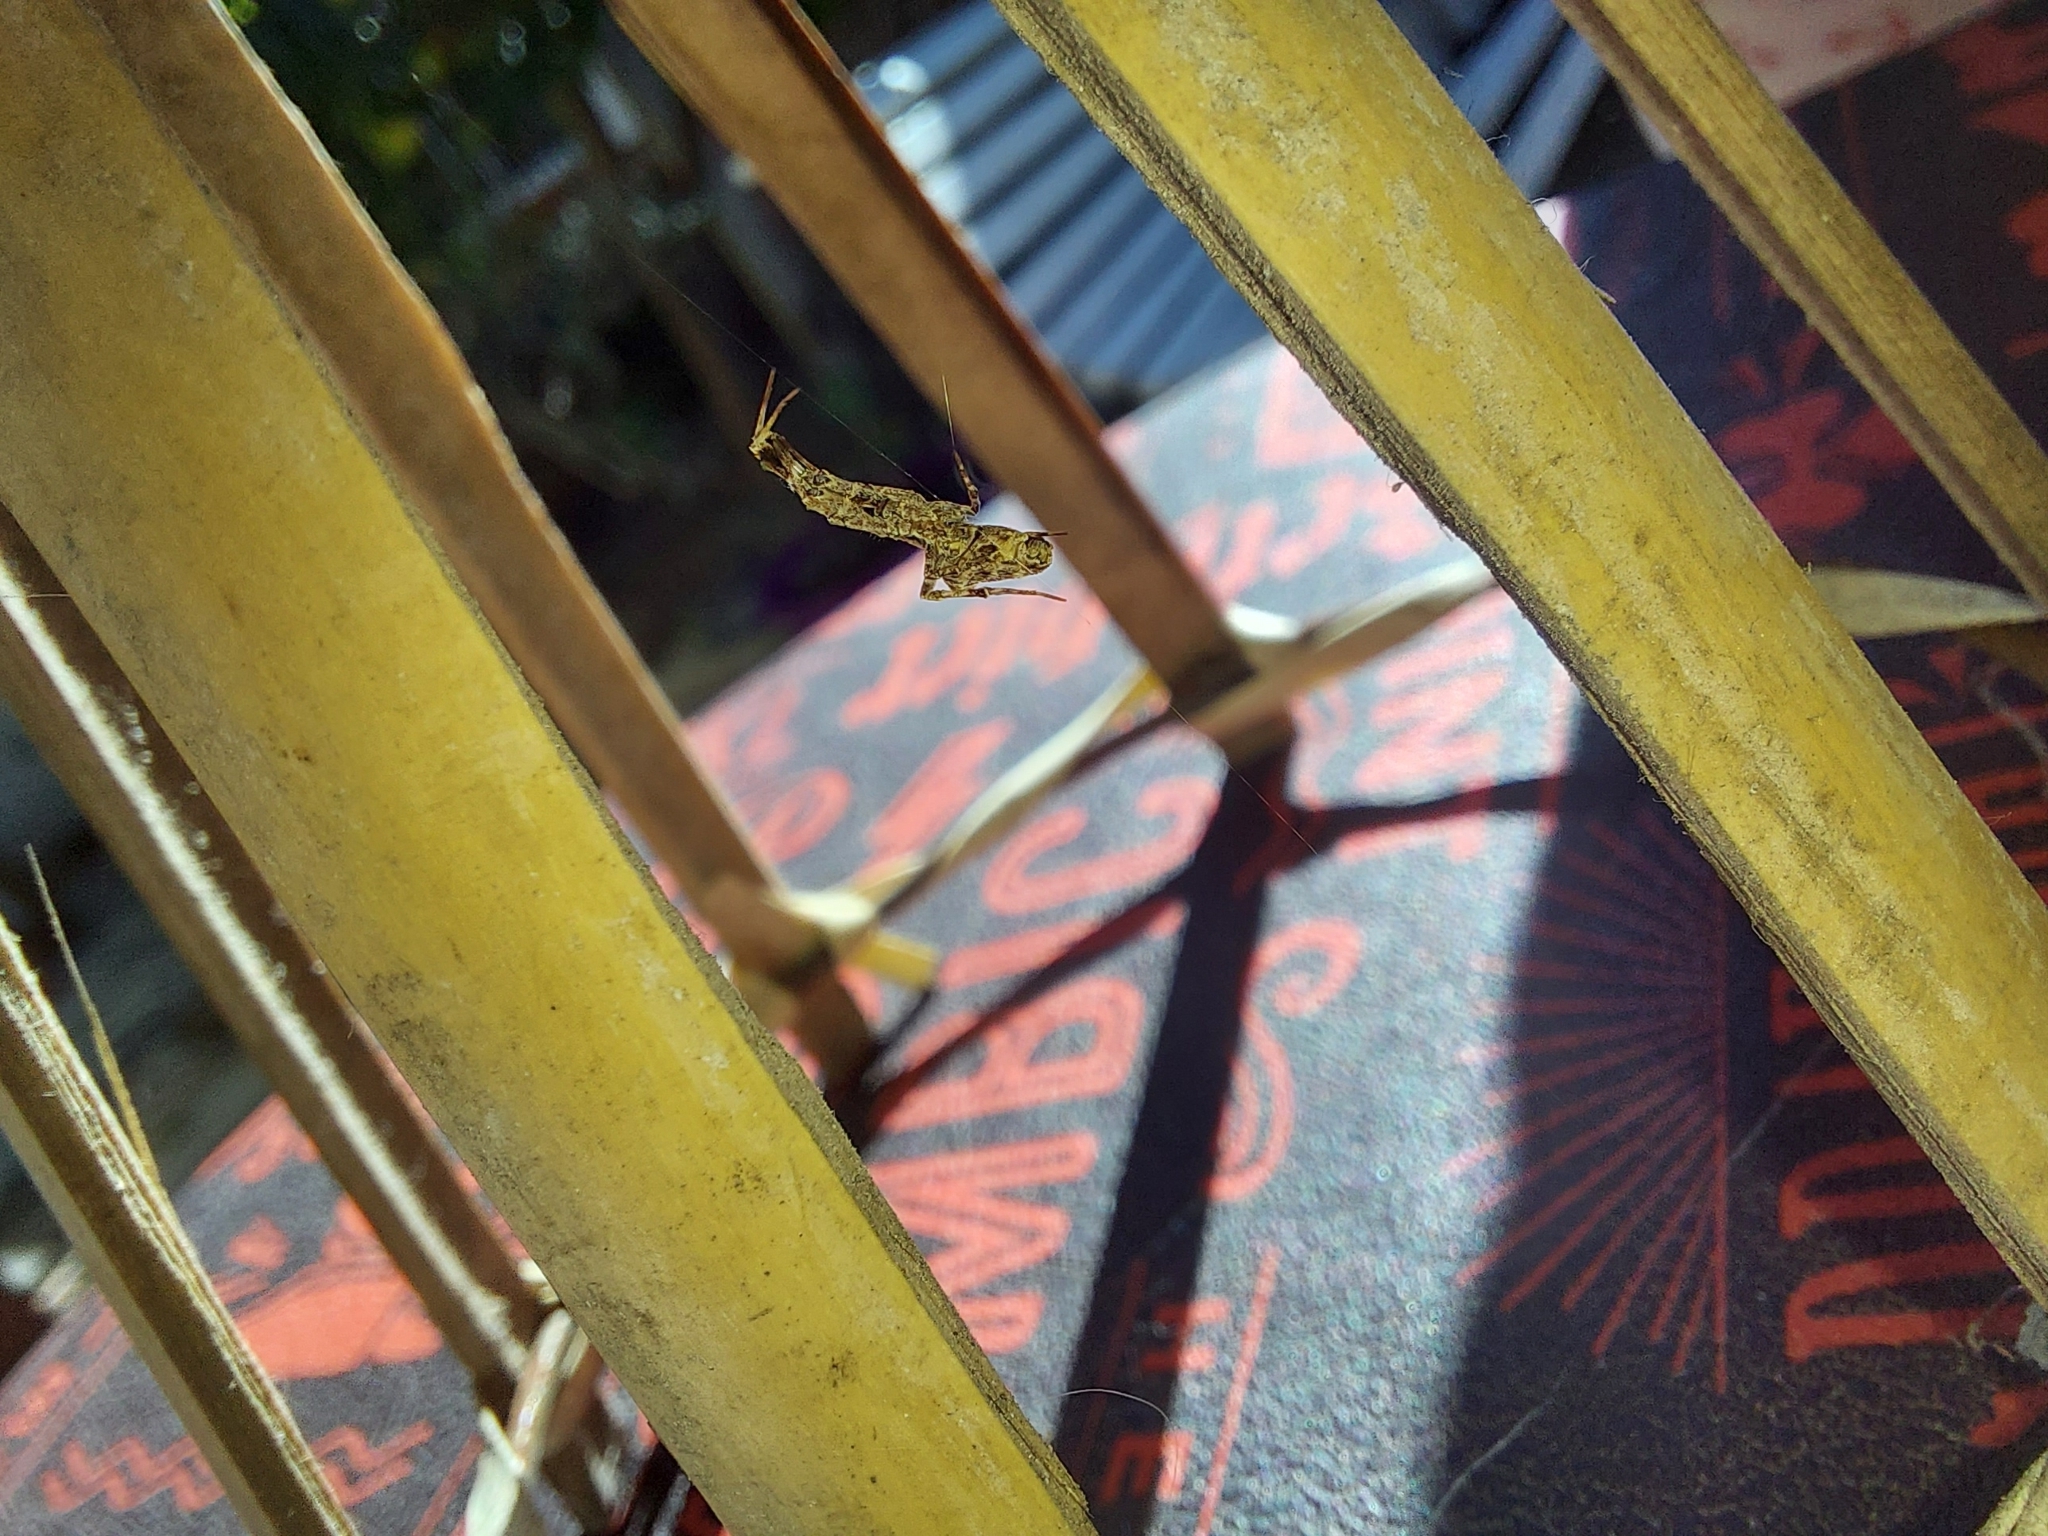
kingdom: Animalia
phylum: Arthropoda
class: Arachnida
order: Araneae
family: Uloboridae
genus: Uloborus
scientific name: Uloborus plumipes
